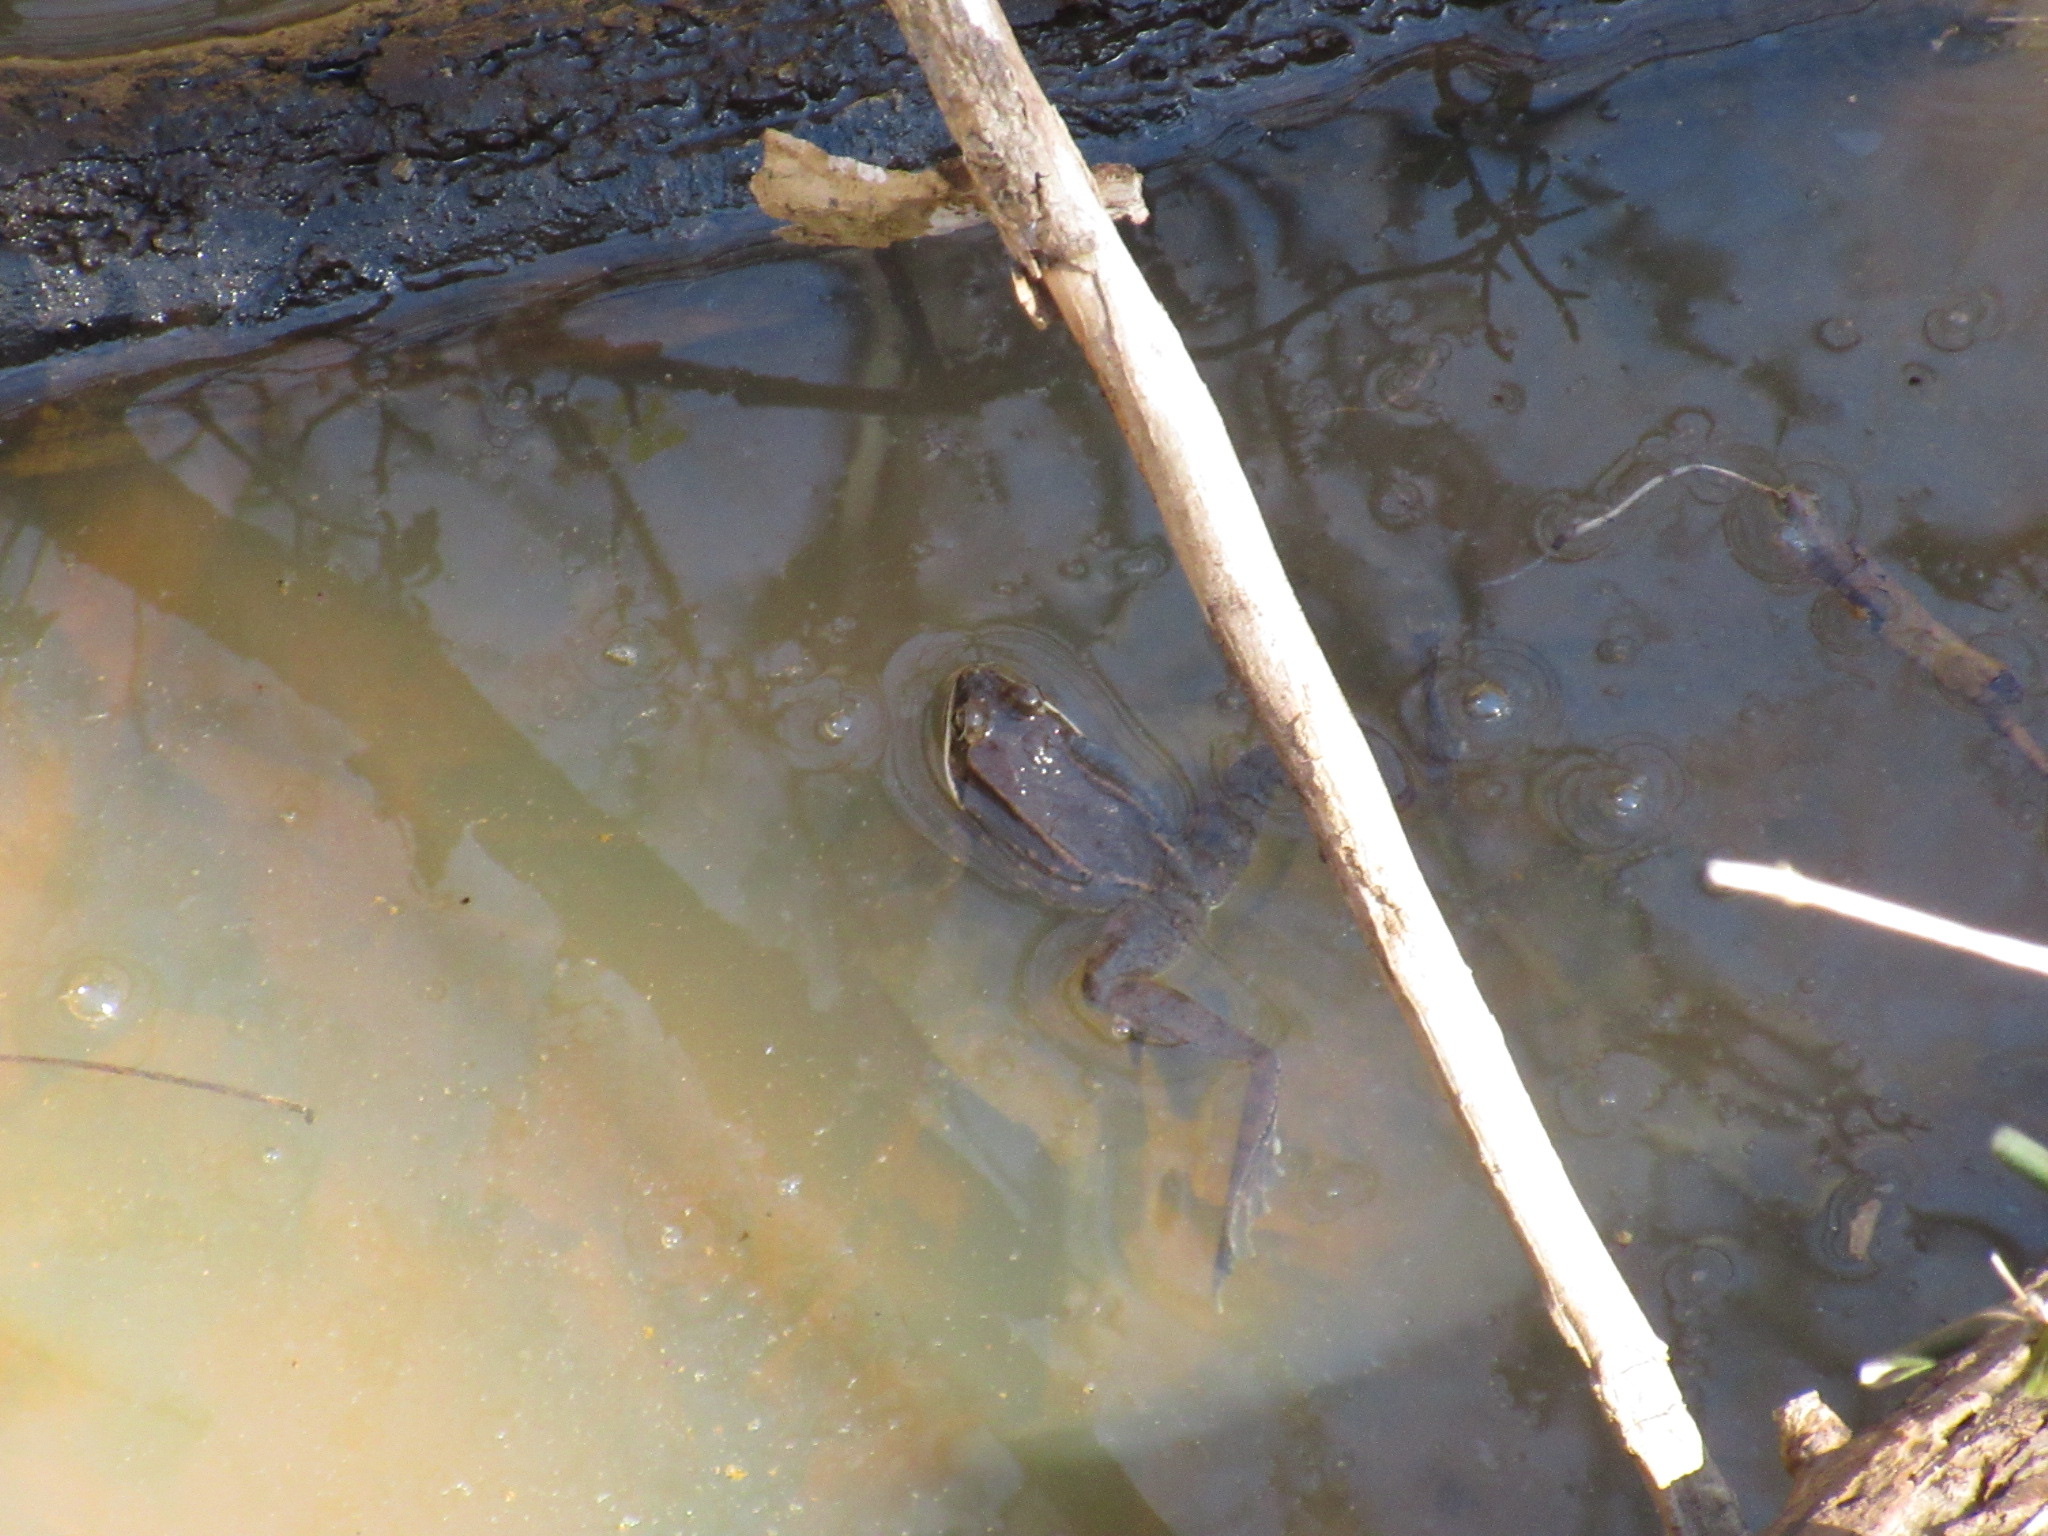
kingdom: Animalia
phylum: Chordata
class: Amphibia
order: Anura
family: Ranidae
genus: Lithobates
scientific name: Lithobates sylvaticus
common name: Wood frog
